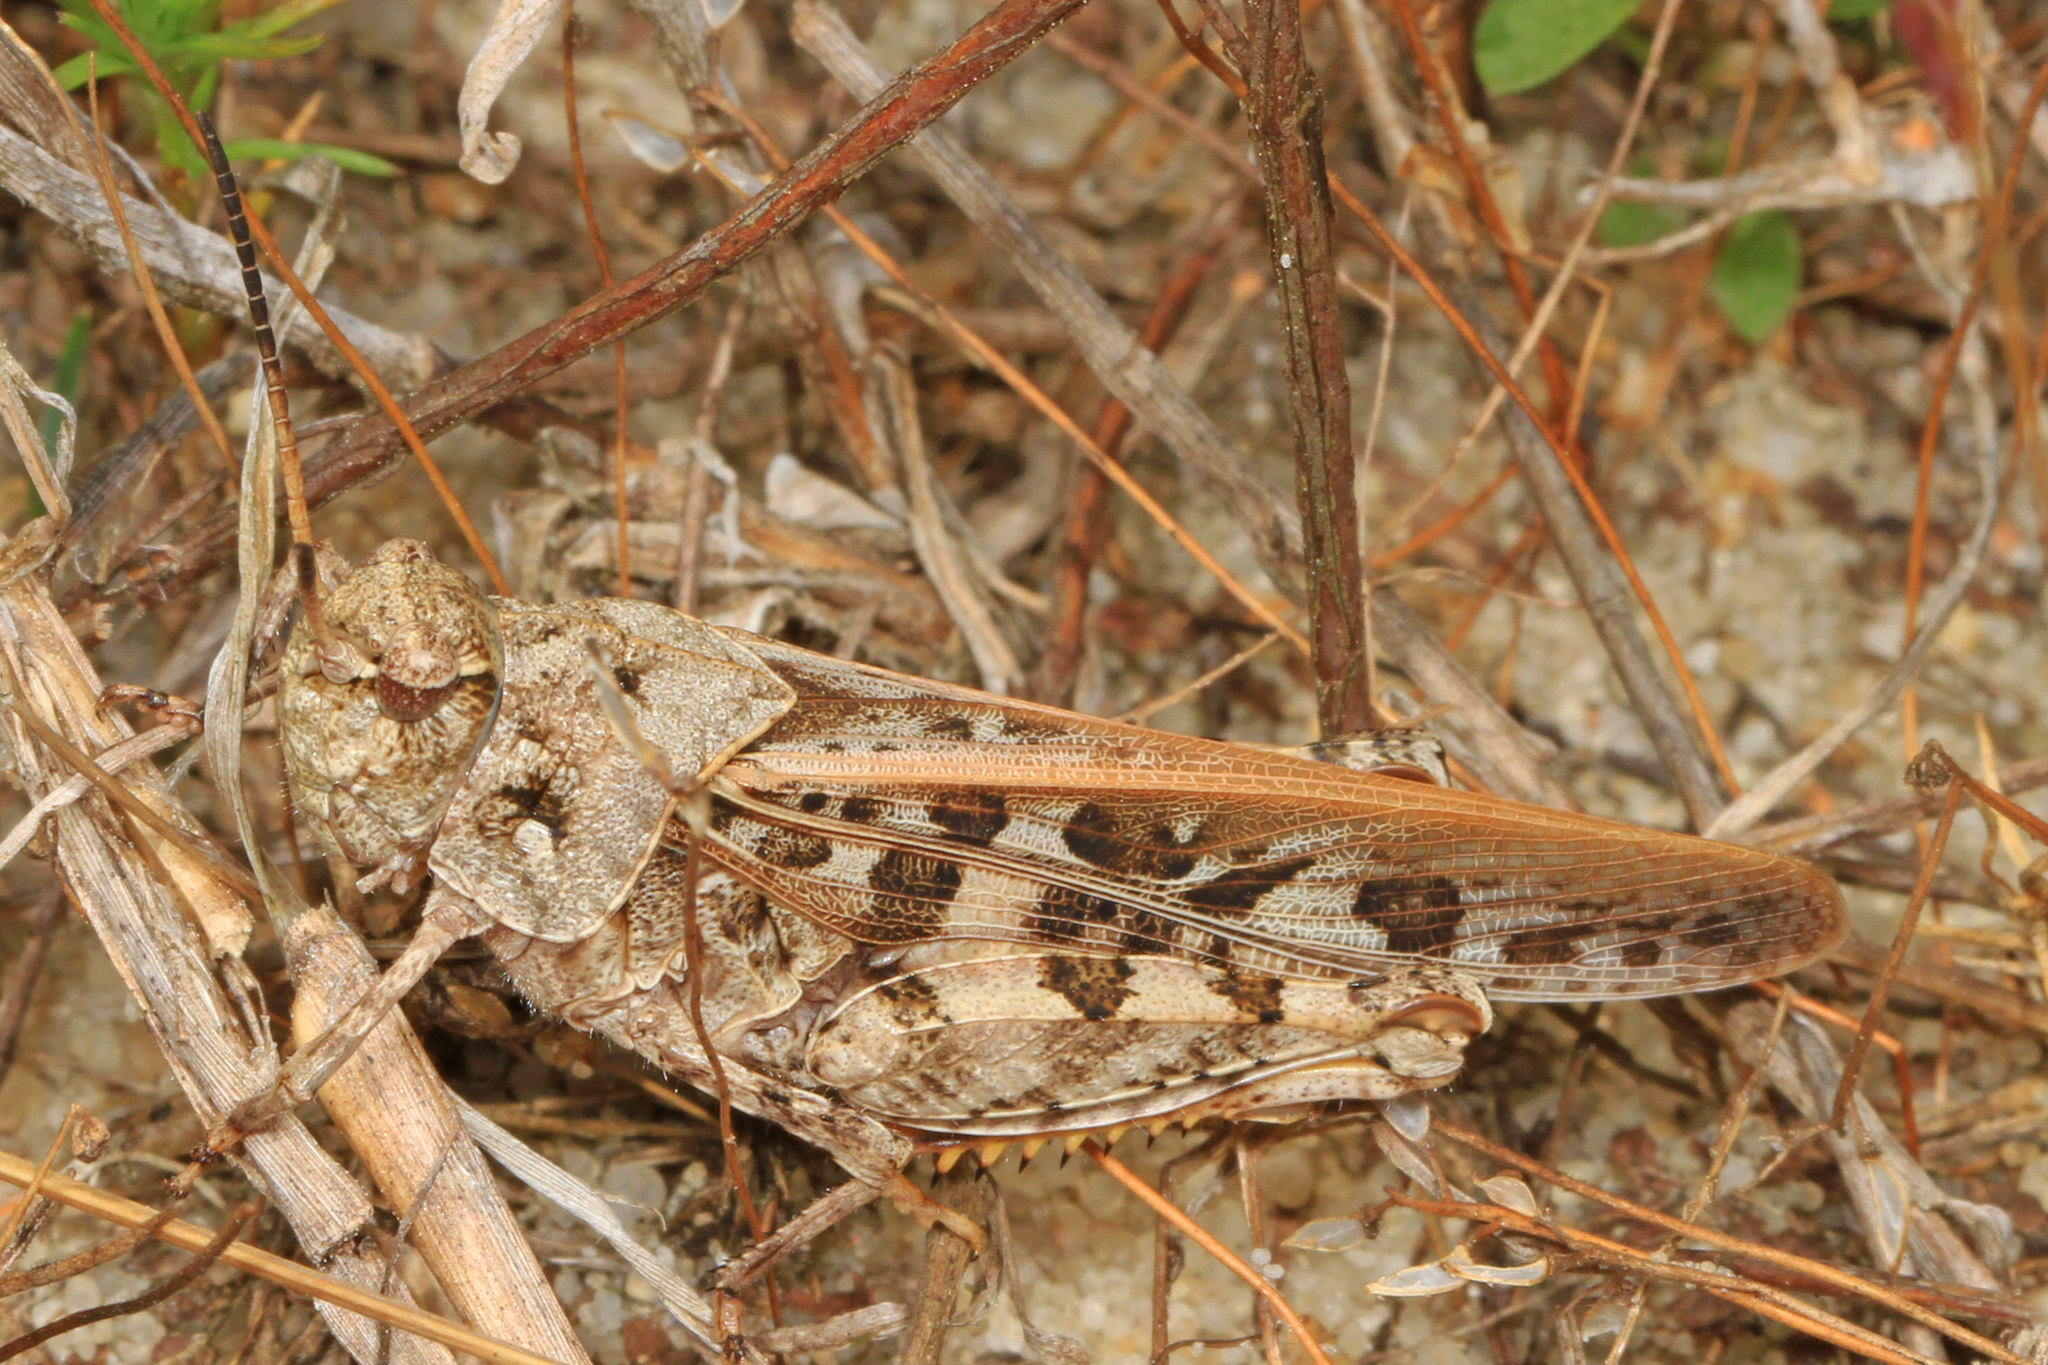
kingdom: Animalia
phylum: Arthropoda
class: Insecta
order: Orthoptera
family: Acrididae
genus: Pardalophora
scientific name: Pardalophora phoenicoptera
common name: Orange-winged grasshopper
